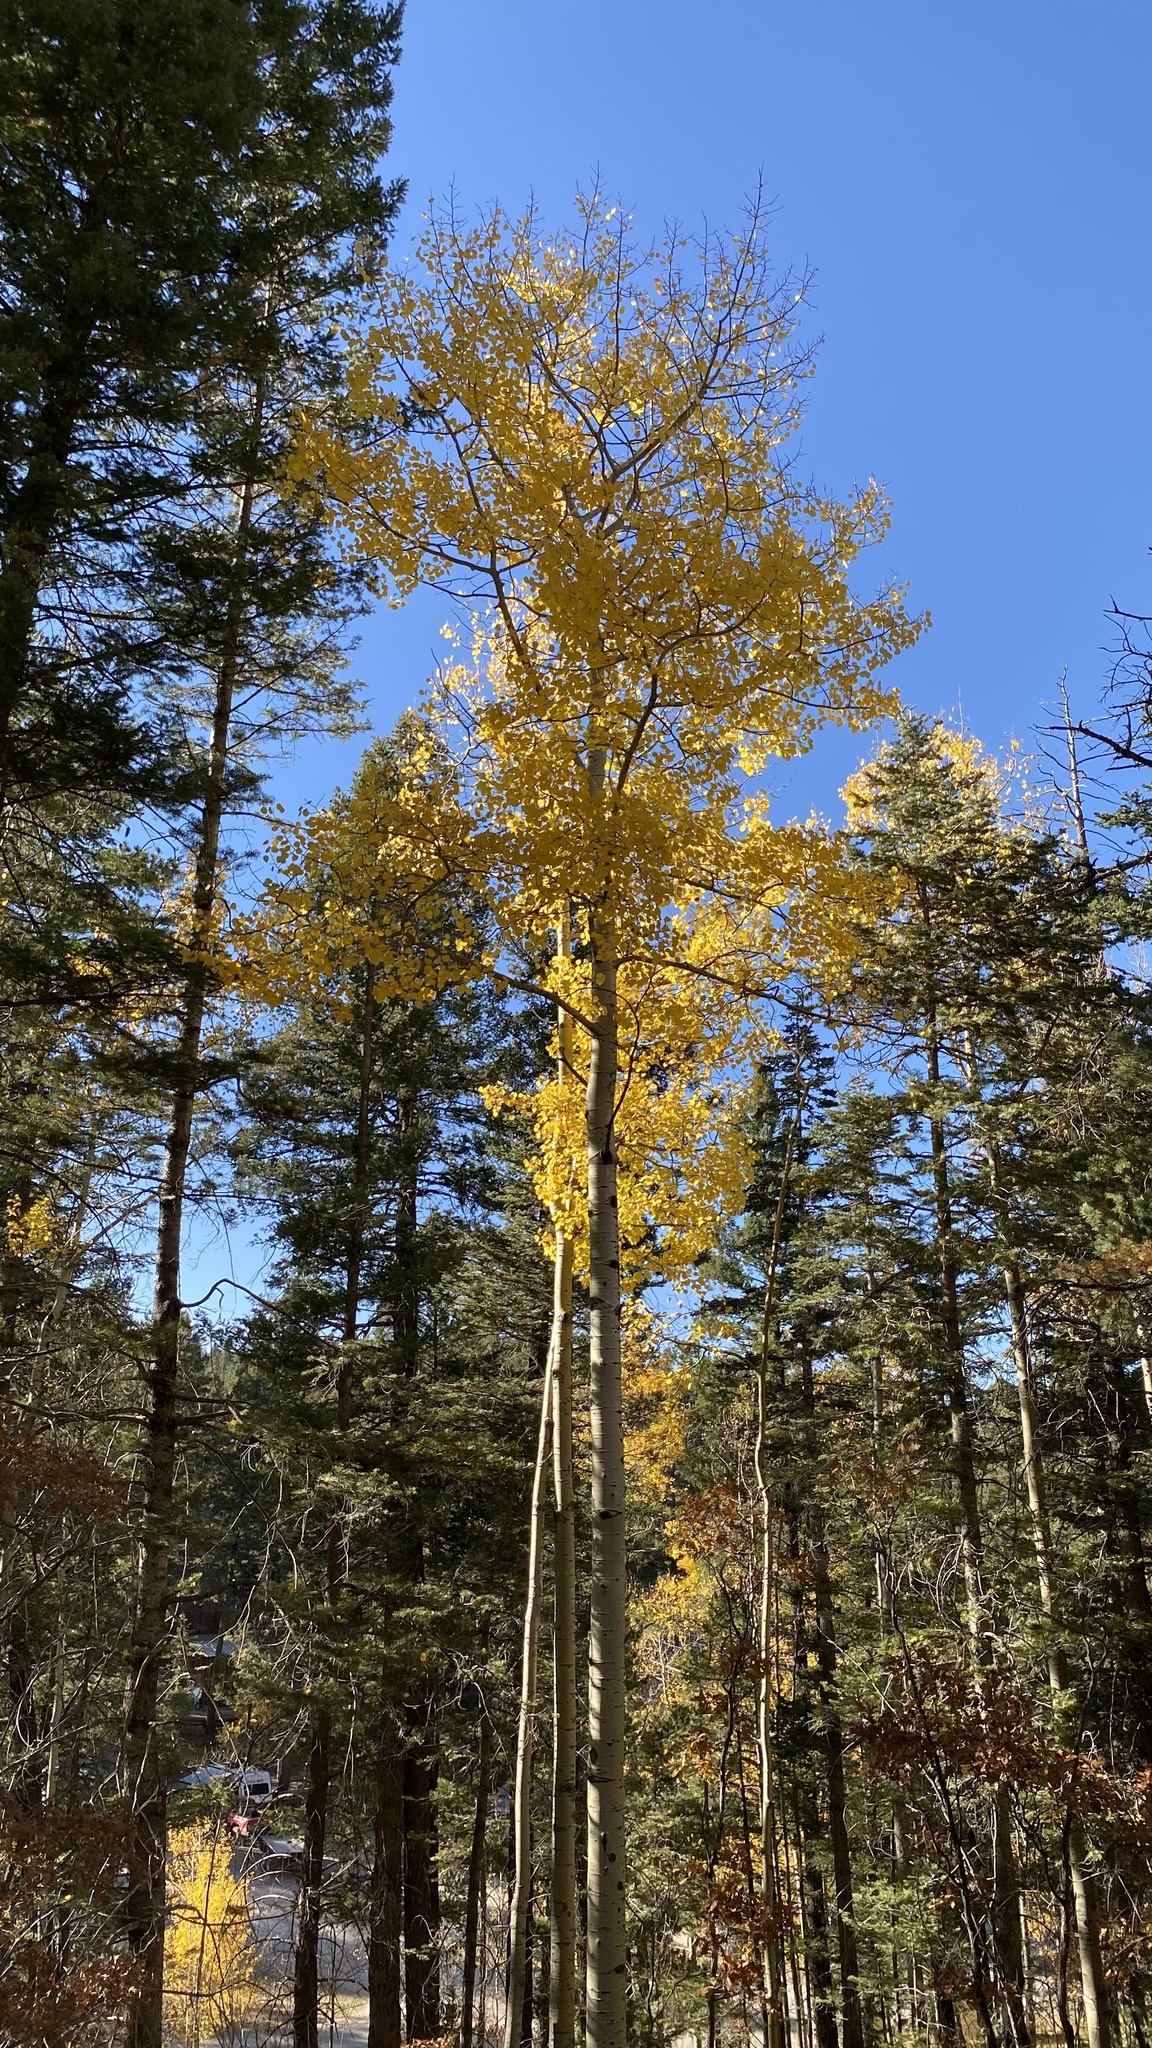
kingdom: Plantae
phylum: Tracheophyta
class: Magnoliopsida
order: Malpighiales
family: Salicaceae
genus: Populus
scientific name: Populus tremuloides
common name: Quaking aspen
